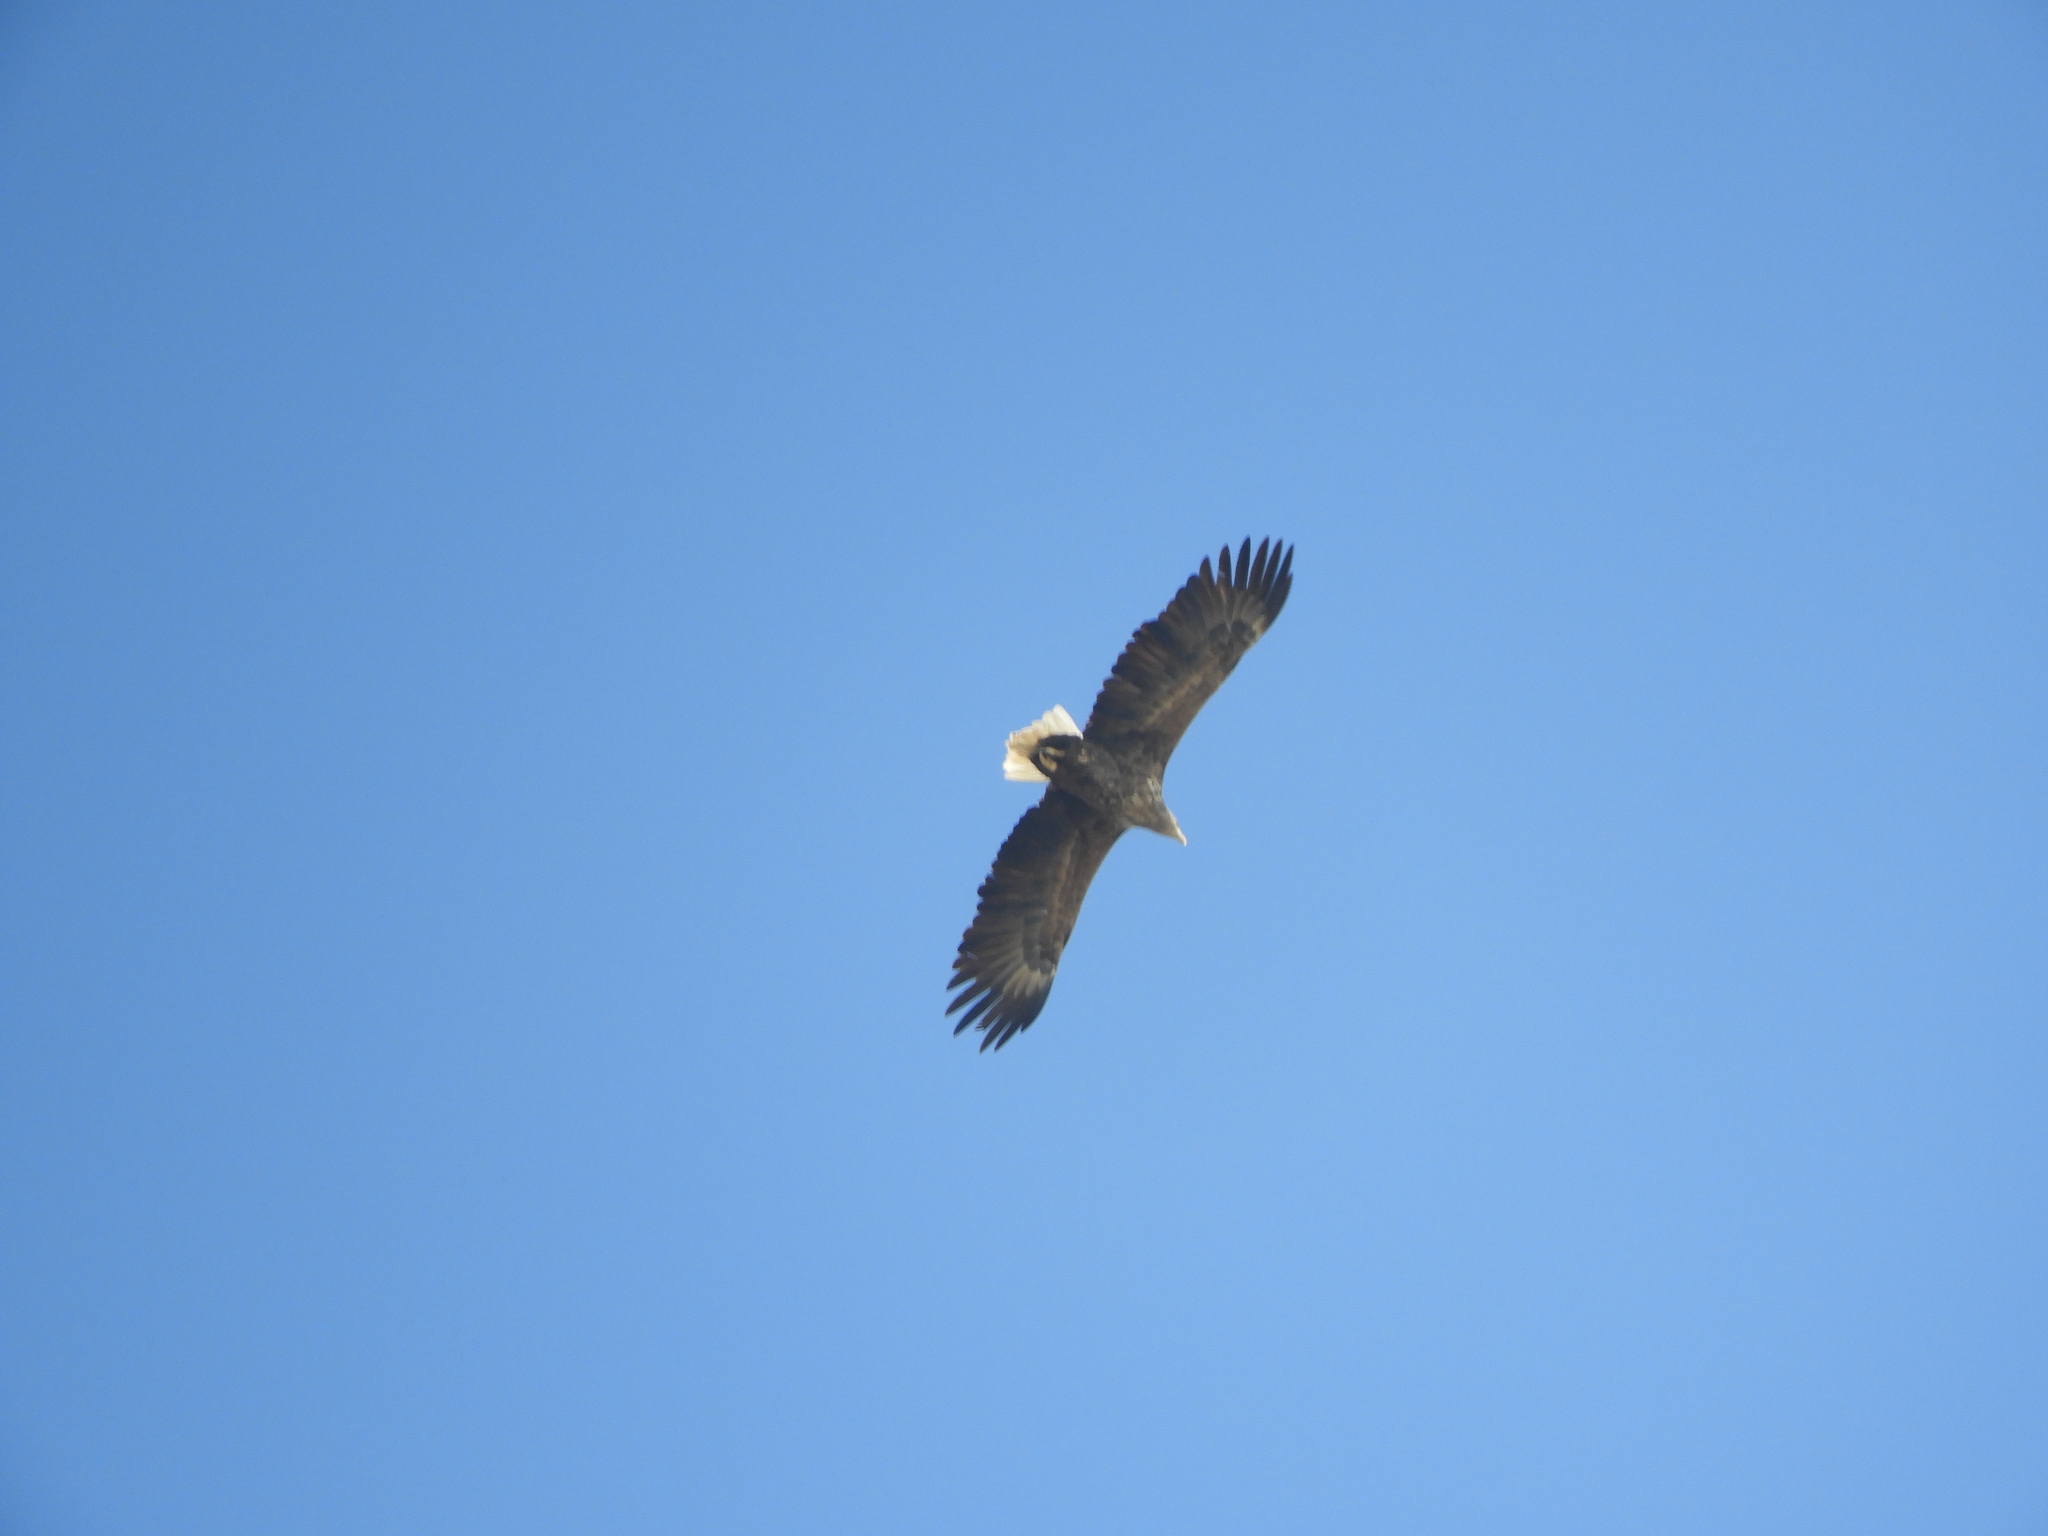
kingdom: Animalia
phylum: Chordata
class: Aves
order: Accipitriformes
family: Accipitridae
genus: Haliaeetus
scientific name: Haliaeetus albicilla
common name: White-tailed eagle
